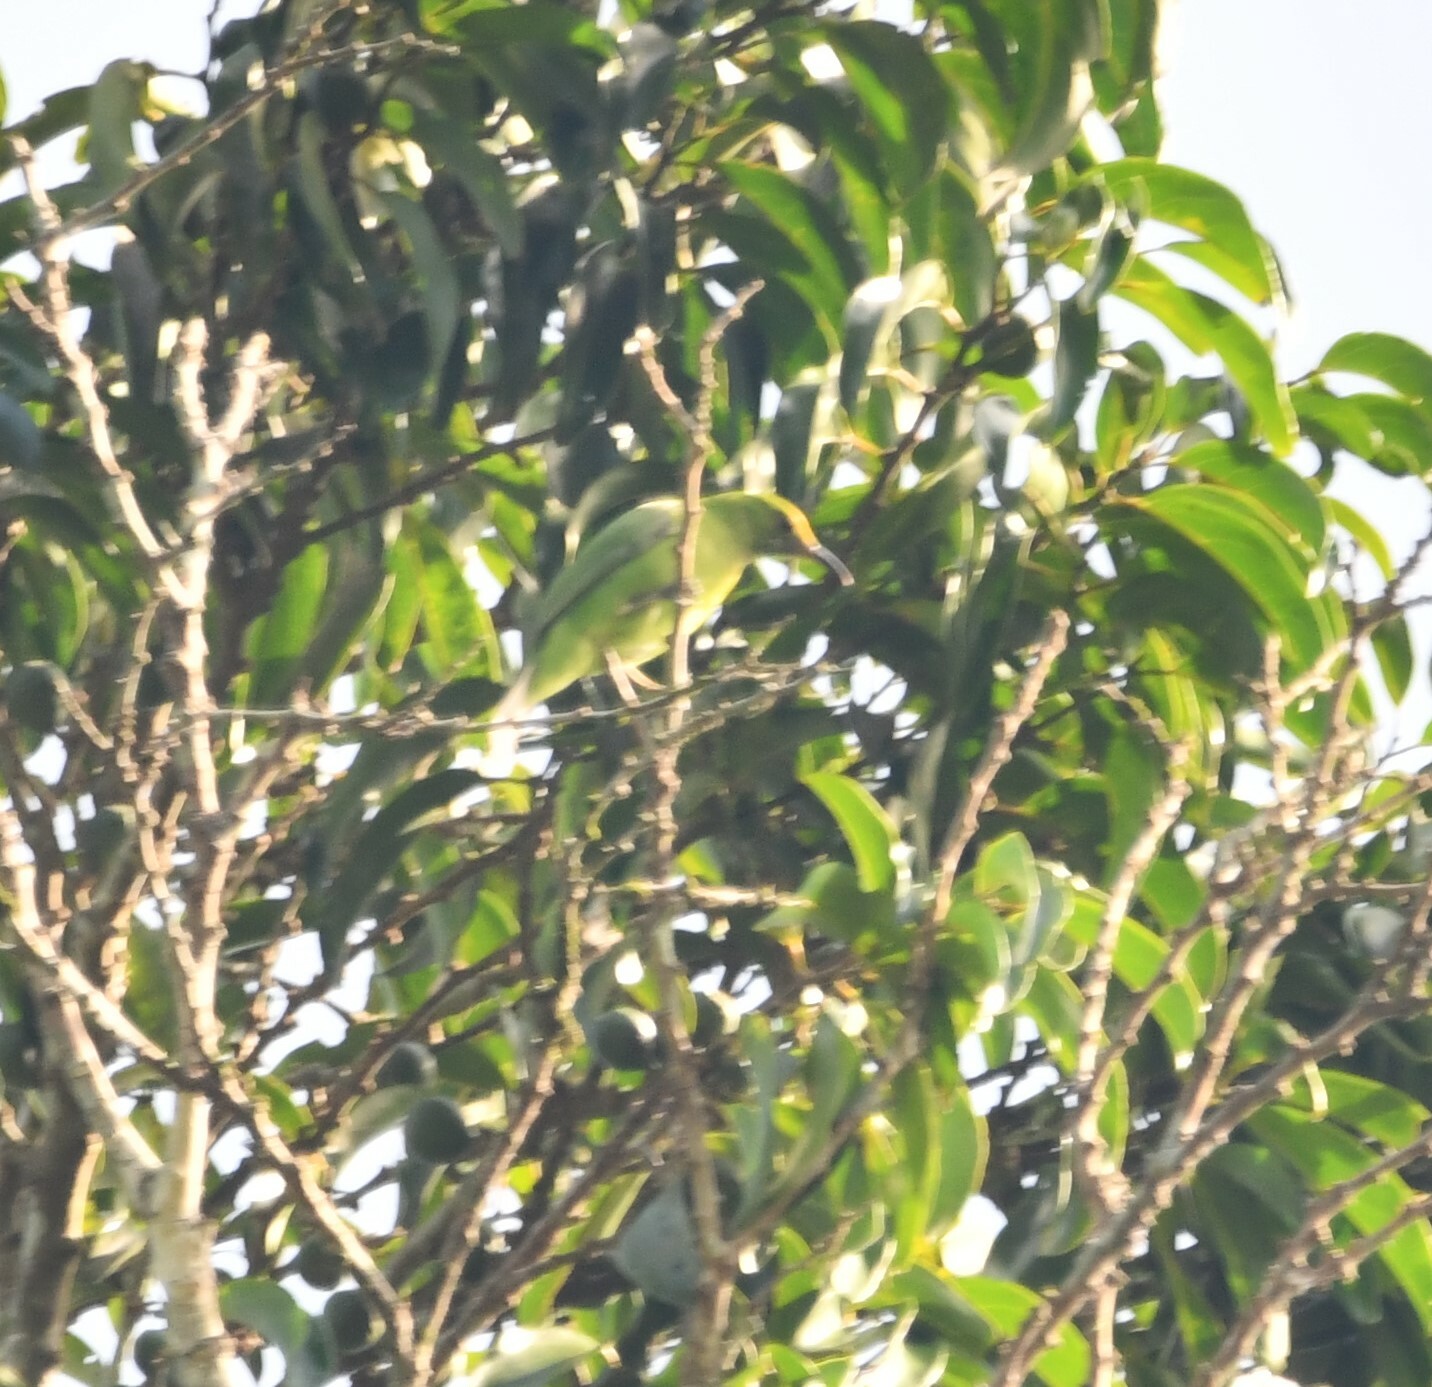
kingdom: Animalia
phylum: Chordata
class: Aves
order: Passeriformes
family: Chloropseidae
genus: Chloropsis
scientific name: Chloropsis aurifrons
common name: Golden-fronted leafbird
